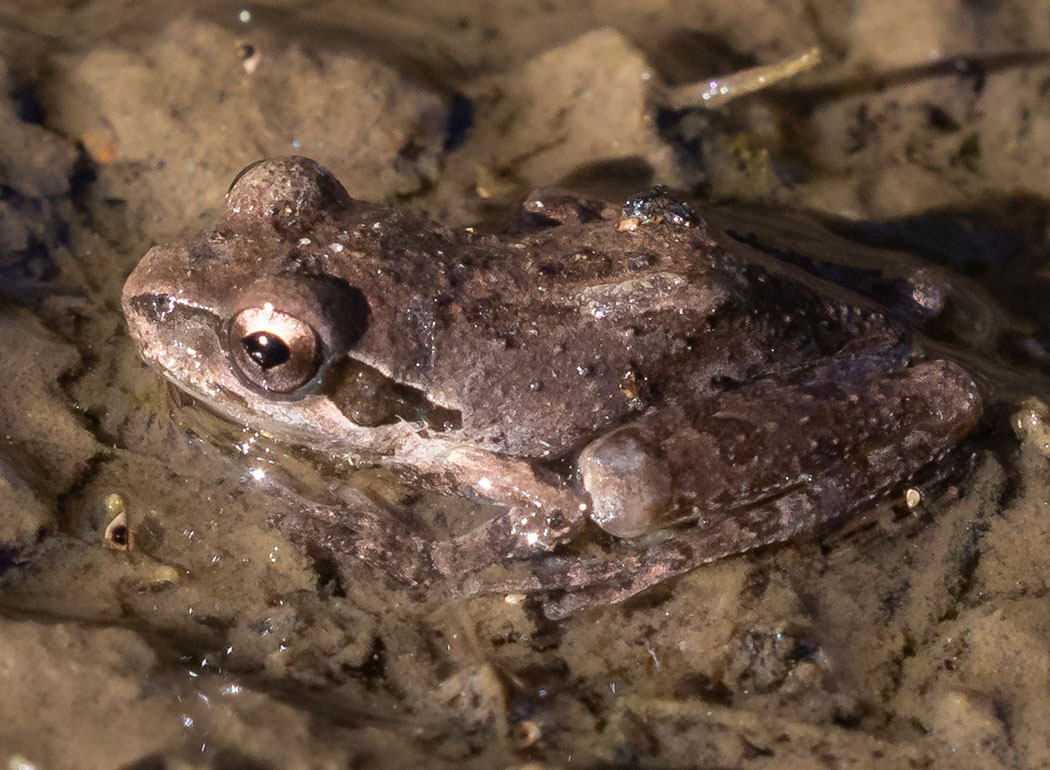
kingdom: Animalia
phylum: Chordata
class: Amphibia
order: Anura
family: Hylidae
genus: Pseudacris
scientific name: Pseudacris regilla
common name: Pacific chorus frog
